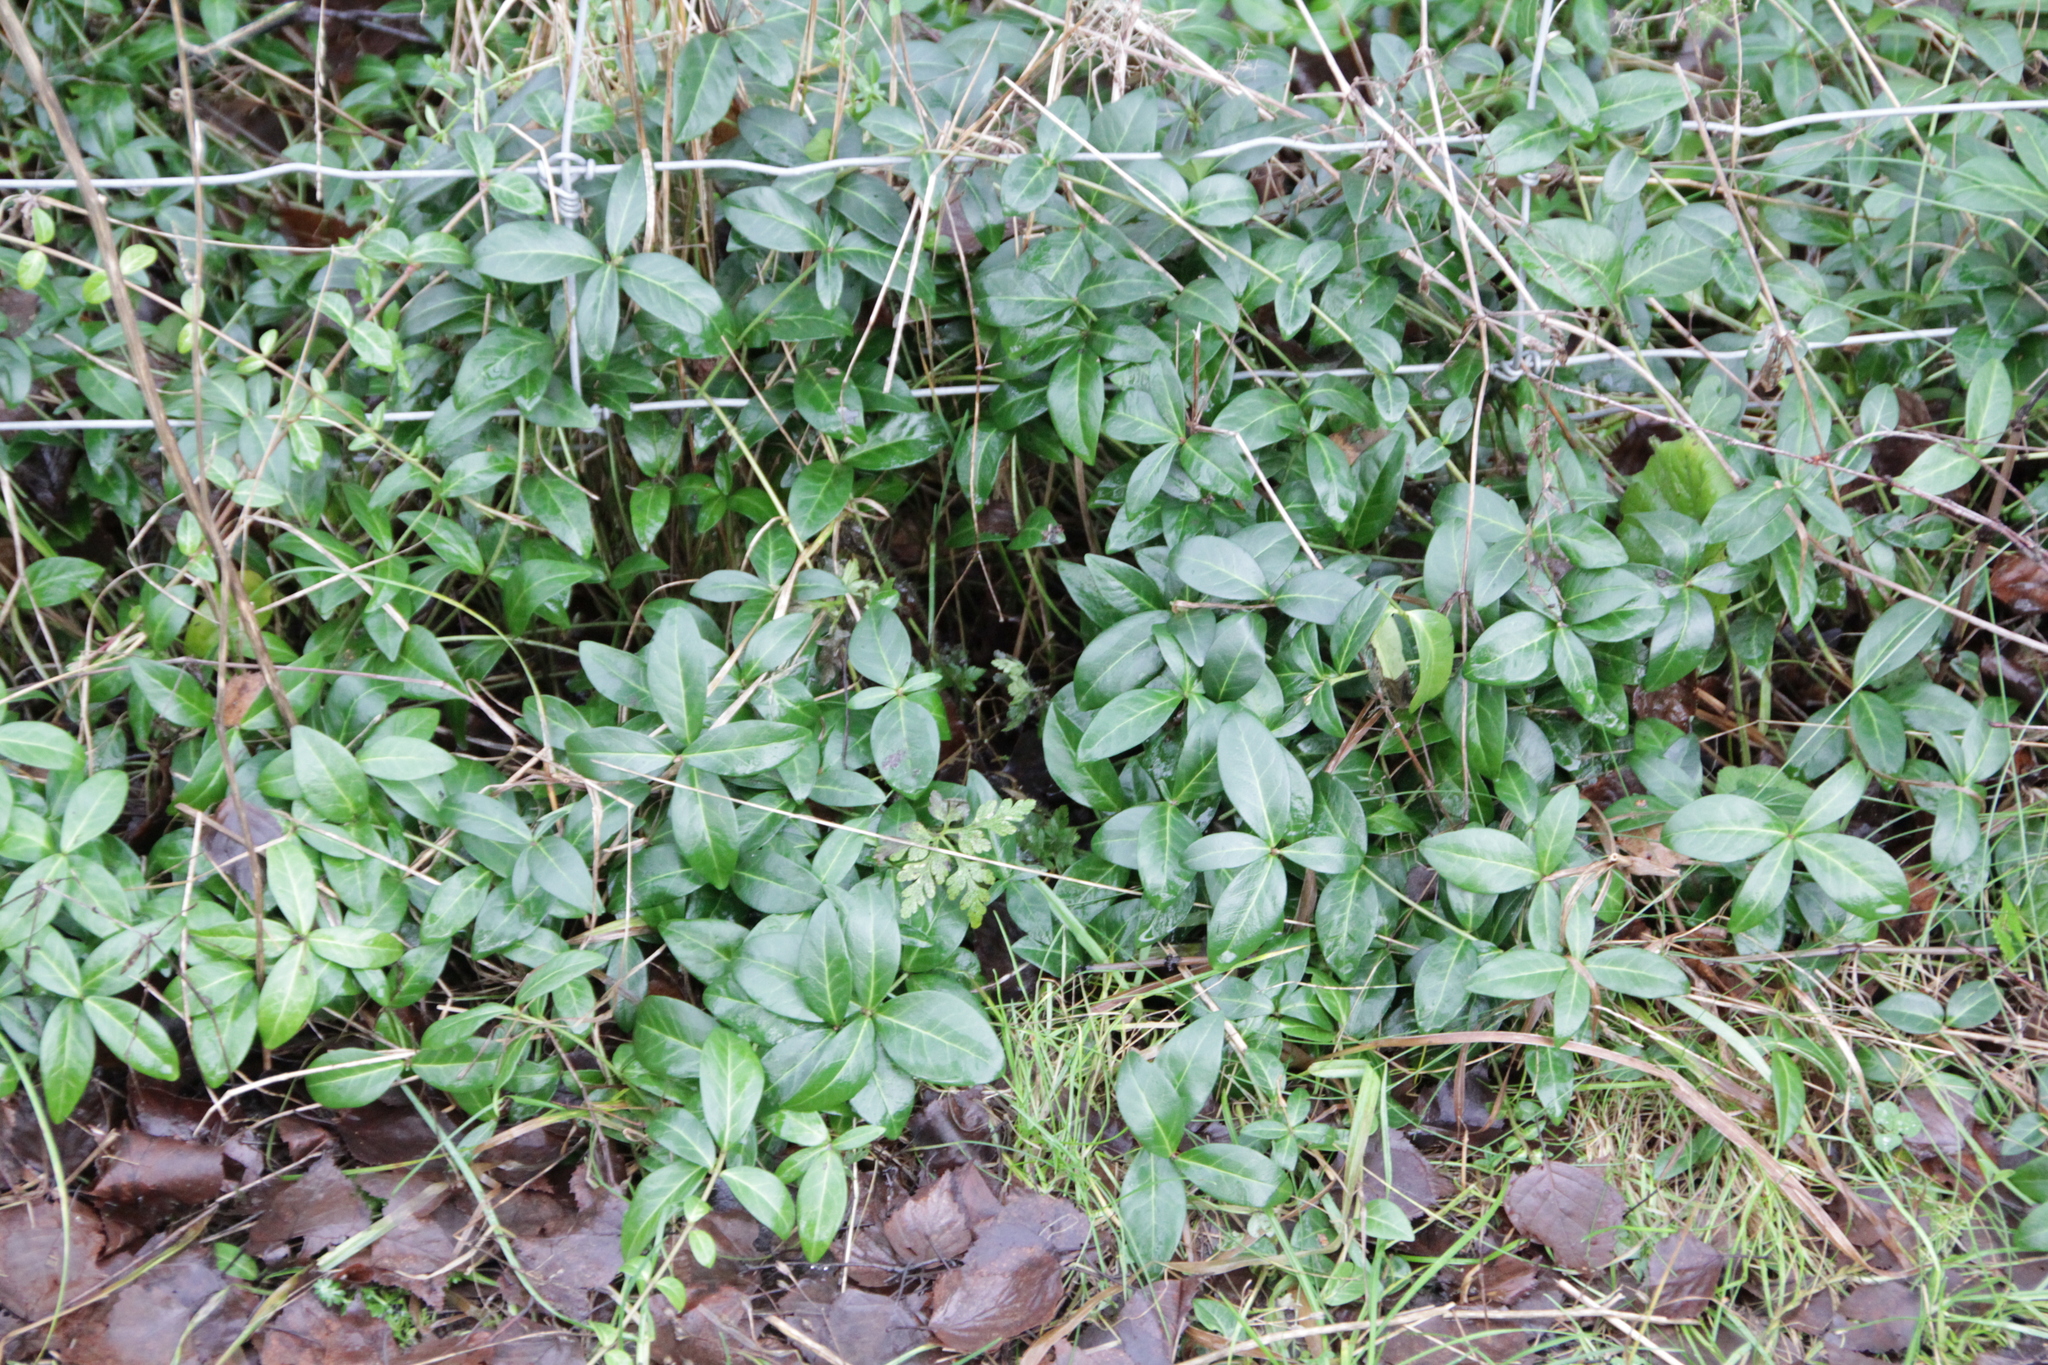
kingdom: Plantae
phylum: Tracheophyta
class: Magnoliopsida
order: Gentianales
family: Apocynaceae
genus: Vinca
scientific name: Vinca minor
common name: Lesser periwinkle
